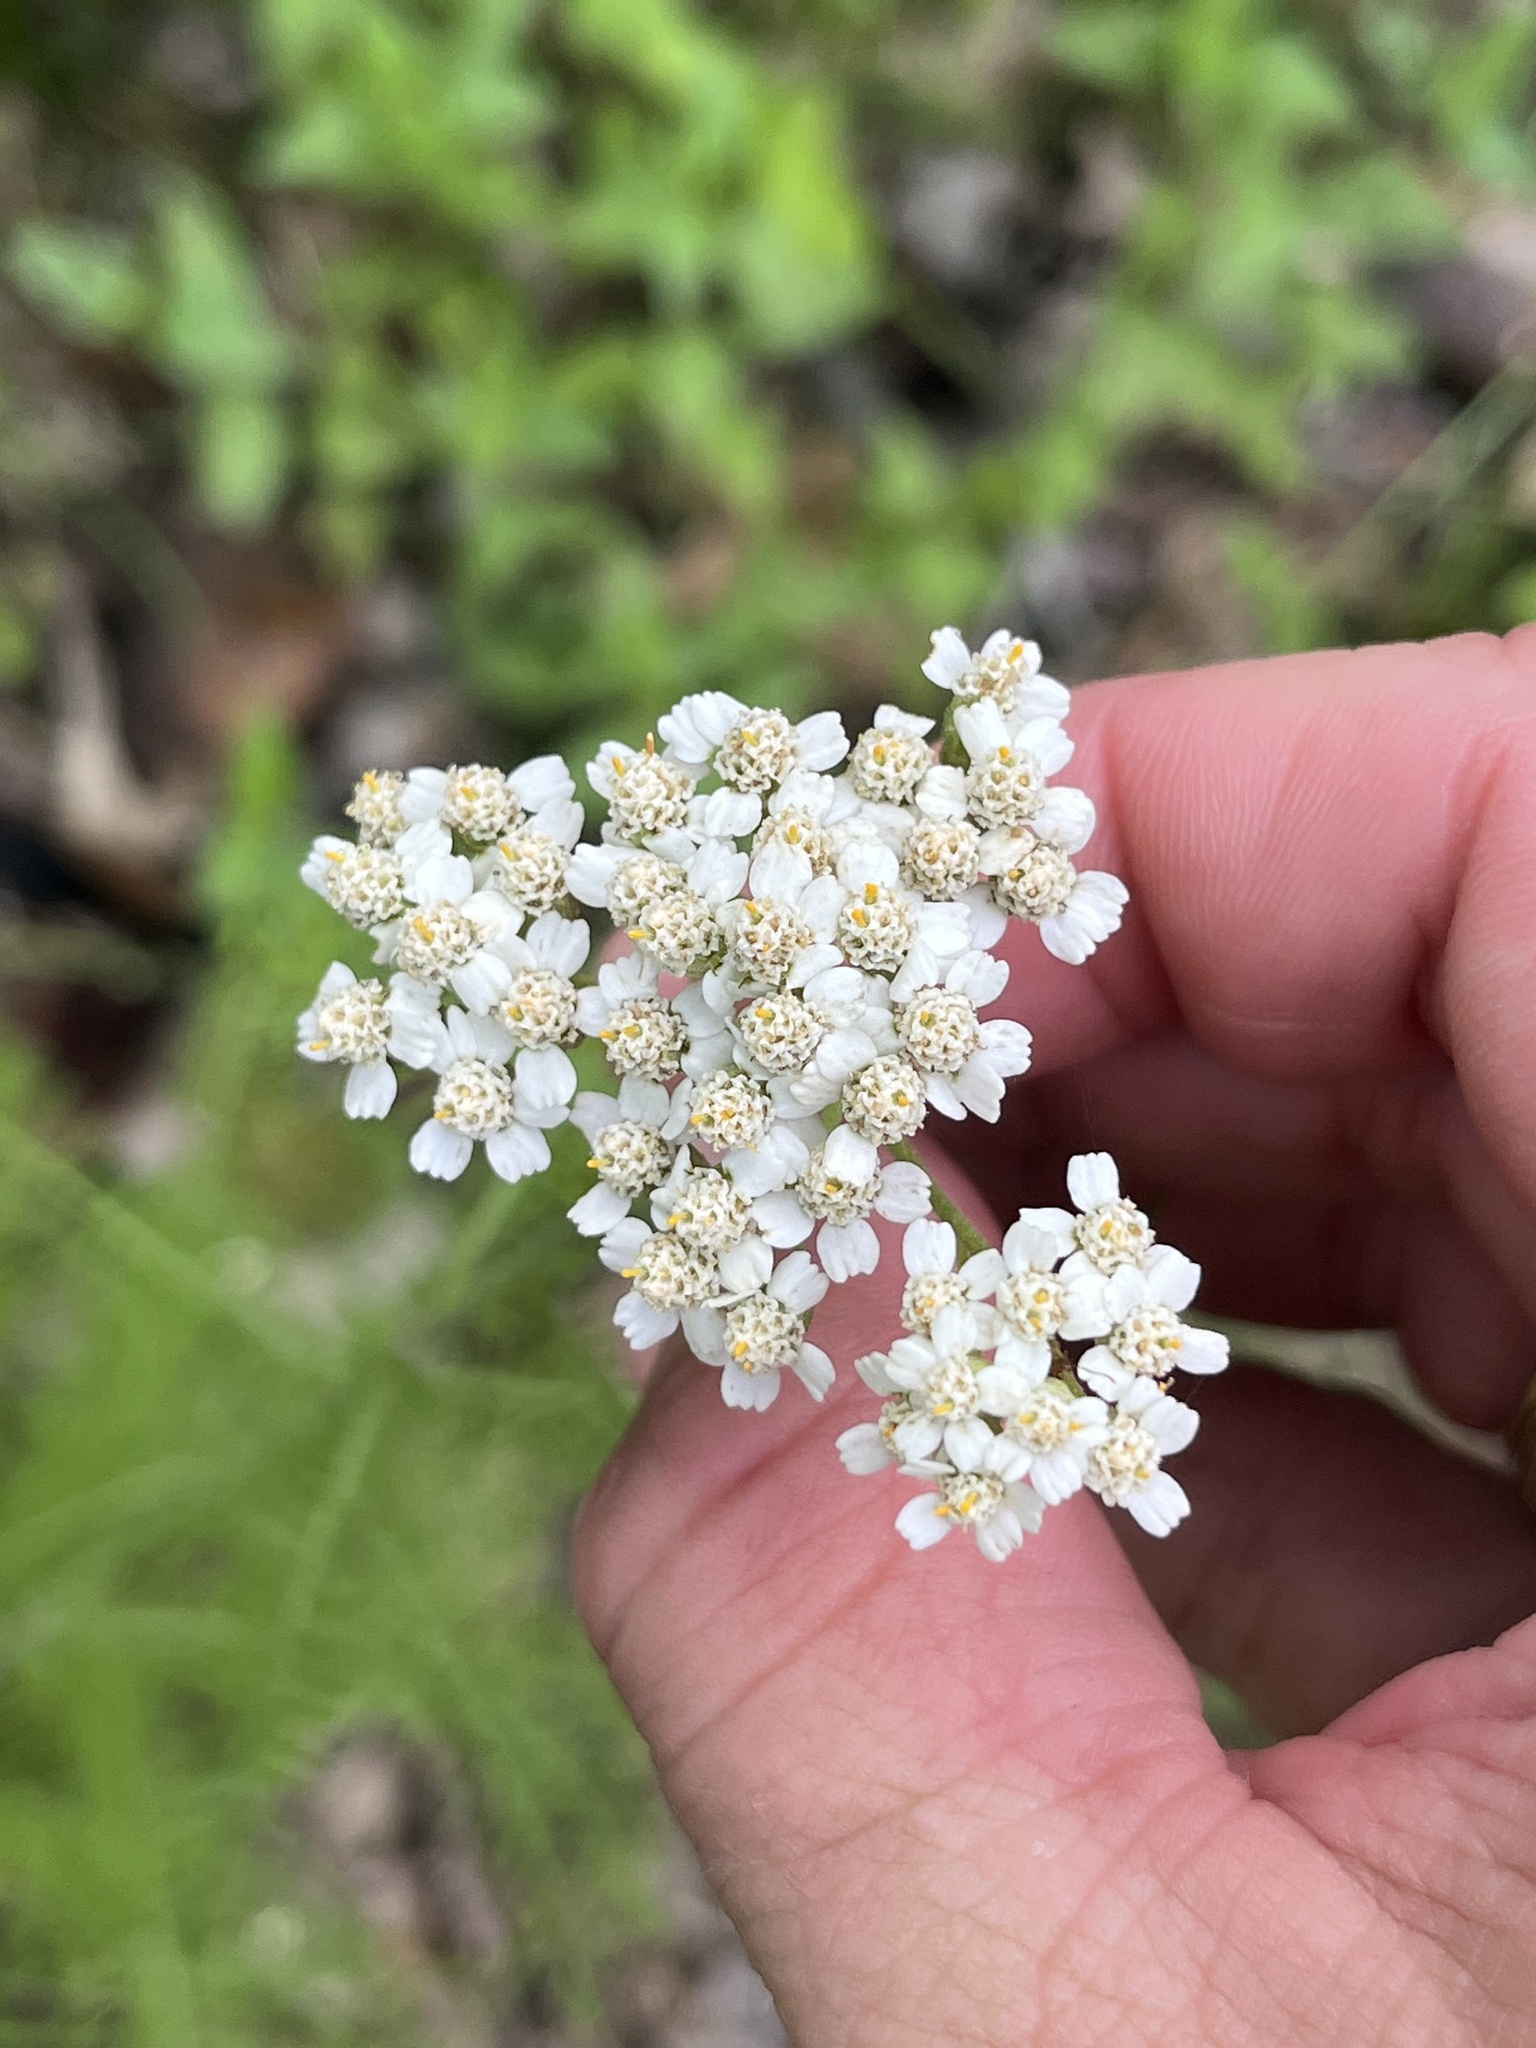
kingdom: Plantae
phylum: Tracheophyta
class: Magnoliopsida
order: Asterales
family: Asteraceae
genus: Achillea
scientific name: Achillea millefolium
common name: Yarrow
